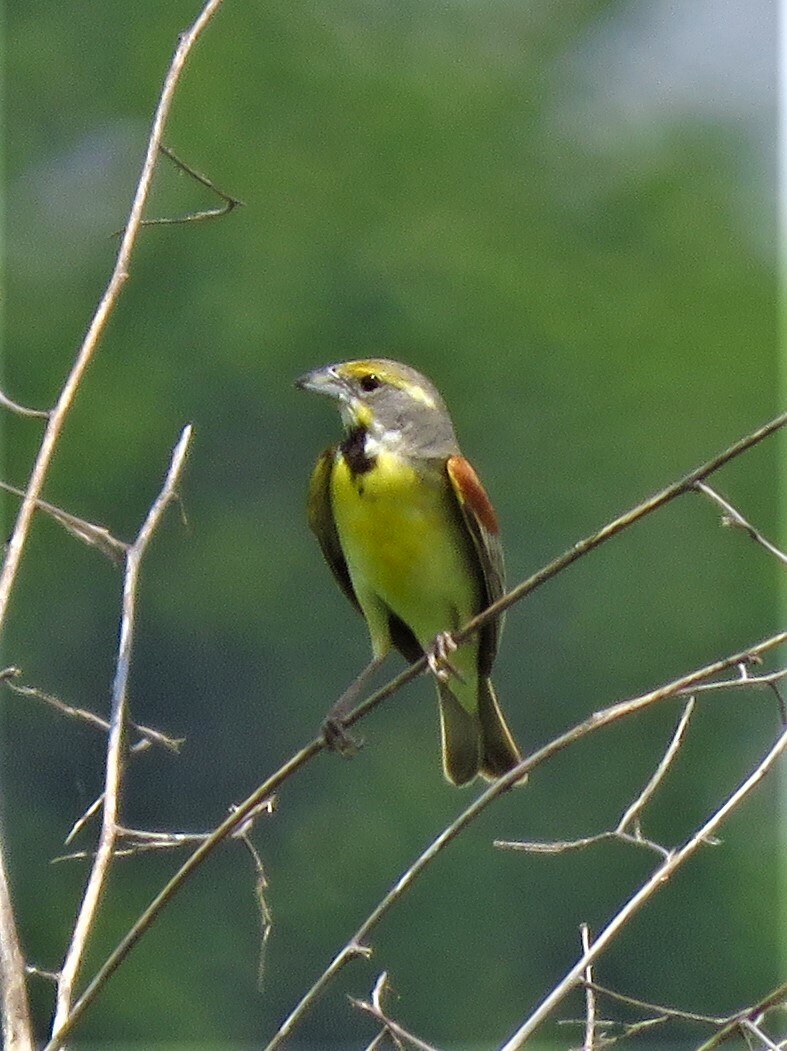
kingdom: Animalia
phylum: Chordata
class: Aves
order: Passeriformes
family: Cardinalidae
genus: Spiza
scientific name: Spiza americana
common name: Dickcissel
